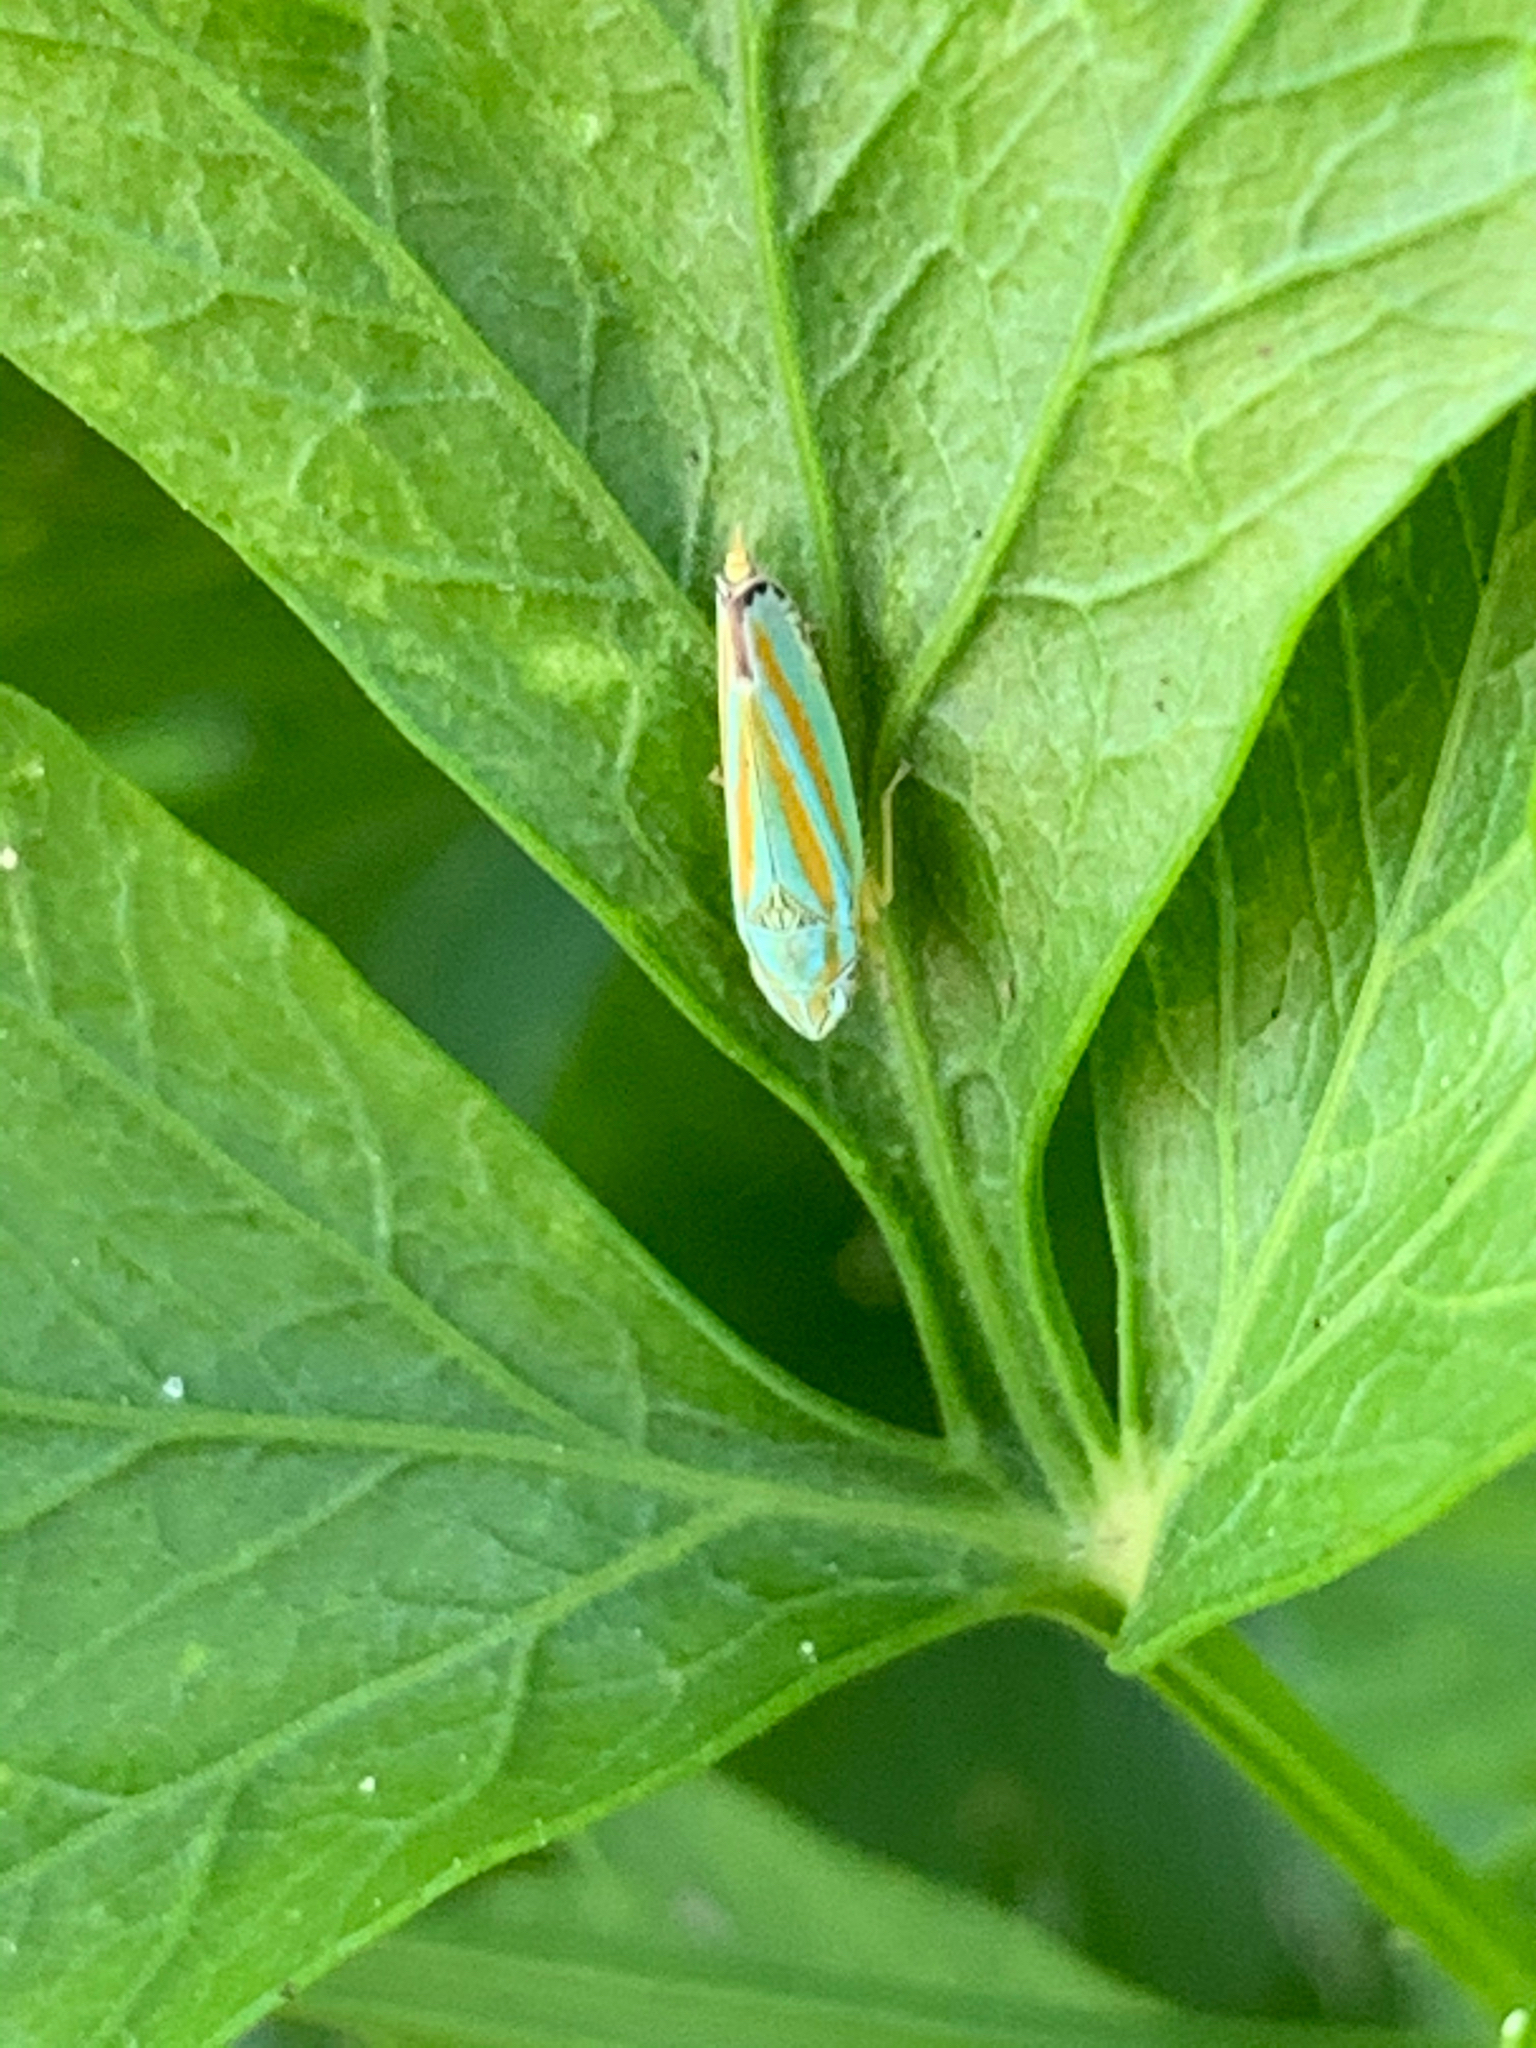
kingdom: Animalia
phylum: Arthropoda
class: Insecta
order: Hemiptera
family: Cicadellidae
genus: Graphocephala
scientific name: Graphocephala versuta
